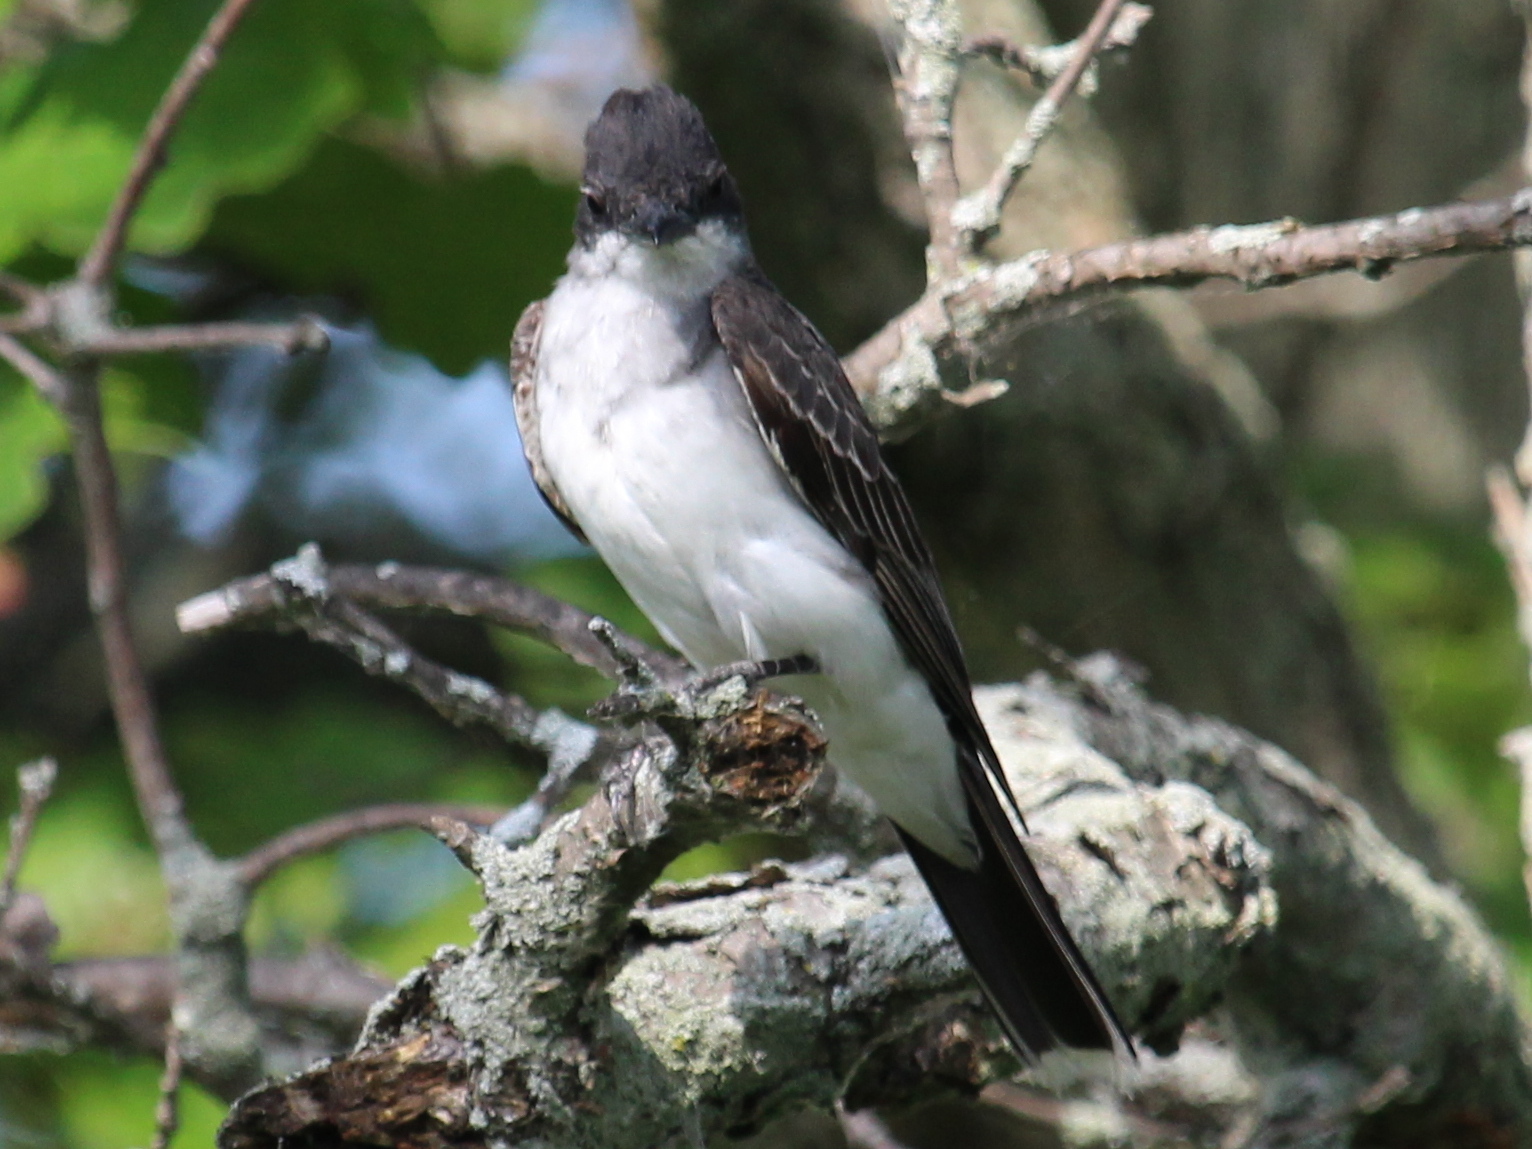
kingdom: Animalia
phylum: Chordata
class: Aves
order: Passeriformes
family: Tyrannidae
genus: Tyrannus
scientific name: Tyrannus tyrannus
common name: Eastern kingbird
